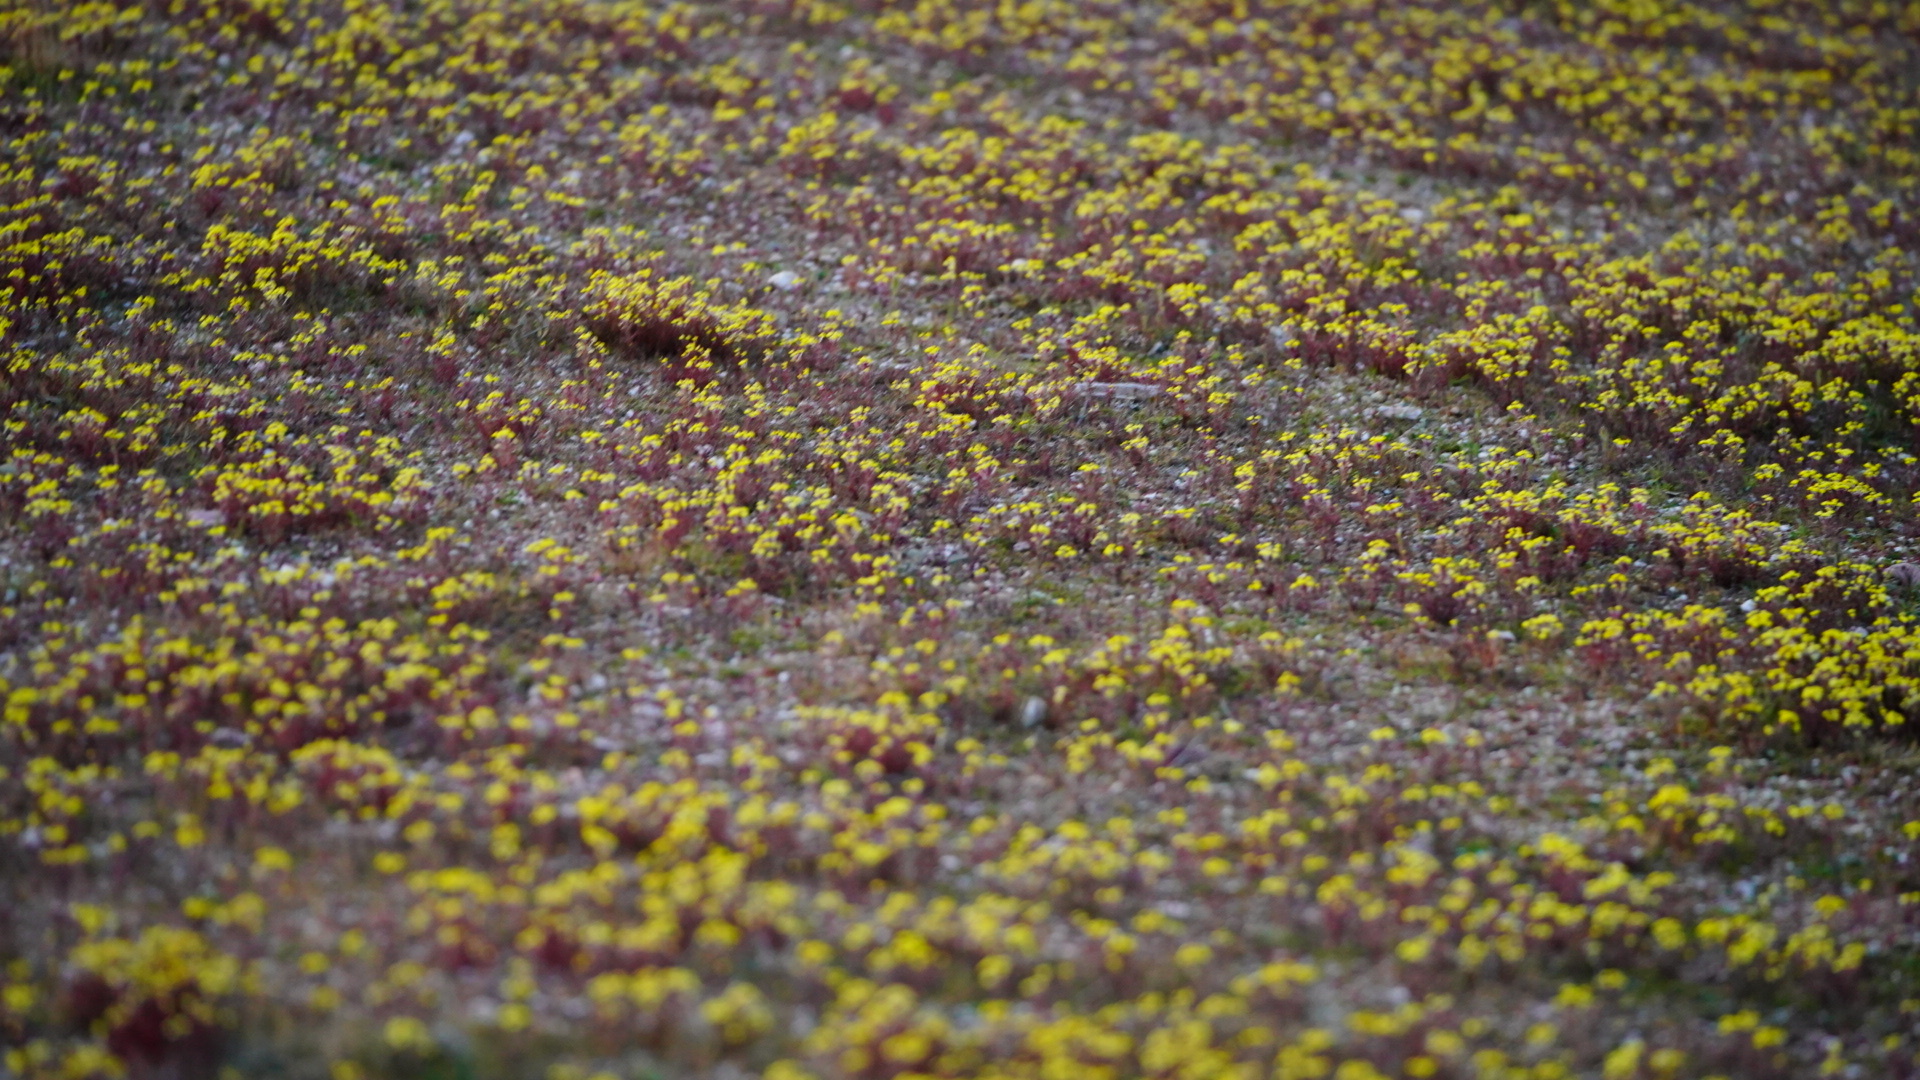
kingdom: Plantae
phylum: Tracheophyta
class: Magnoliopsida
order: Lamiales
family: Orobanchaceae
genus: Triphysaria
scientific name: Triphysaria eriantha
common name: Johnny-tuck
